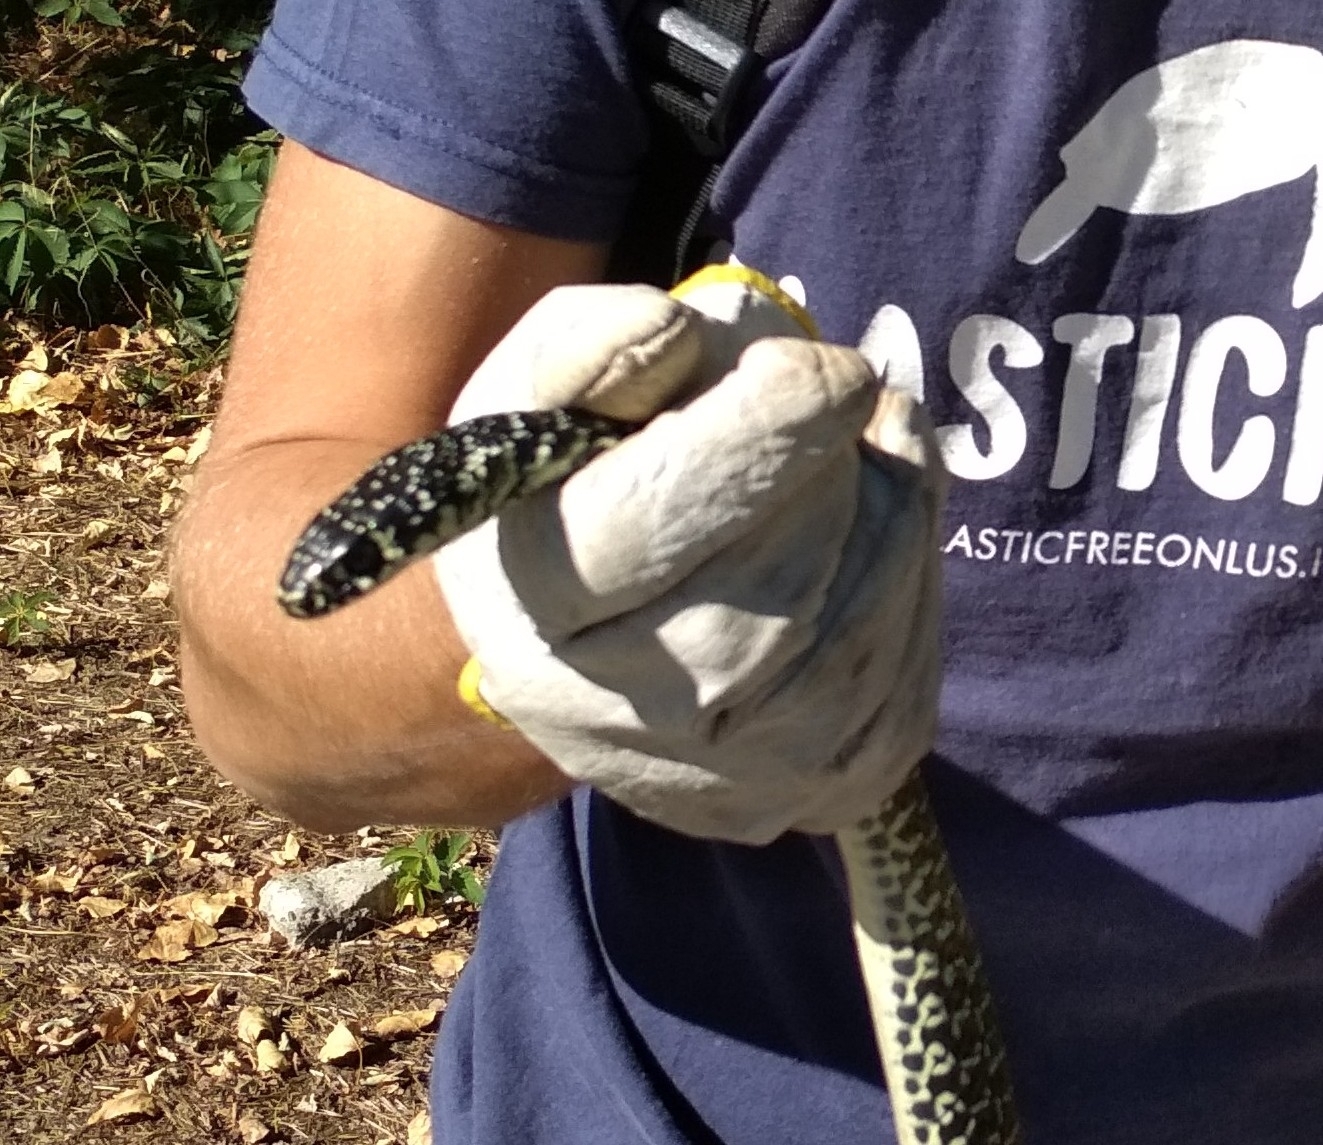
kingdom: Animalia
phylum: Chordata
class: Squamata
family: Colubridae
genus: Hierophis
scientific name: Hierophis viridiflavus
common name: Green whip snake
